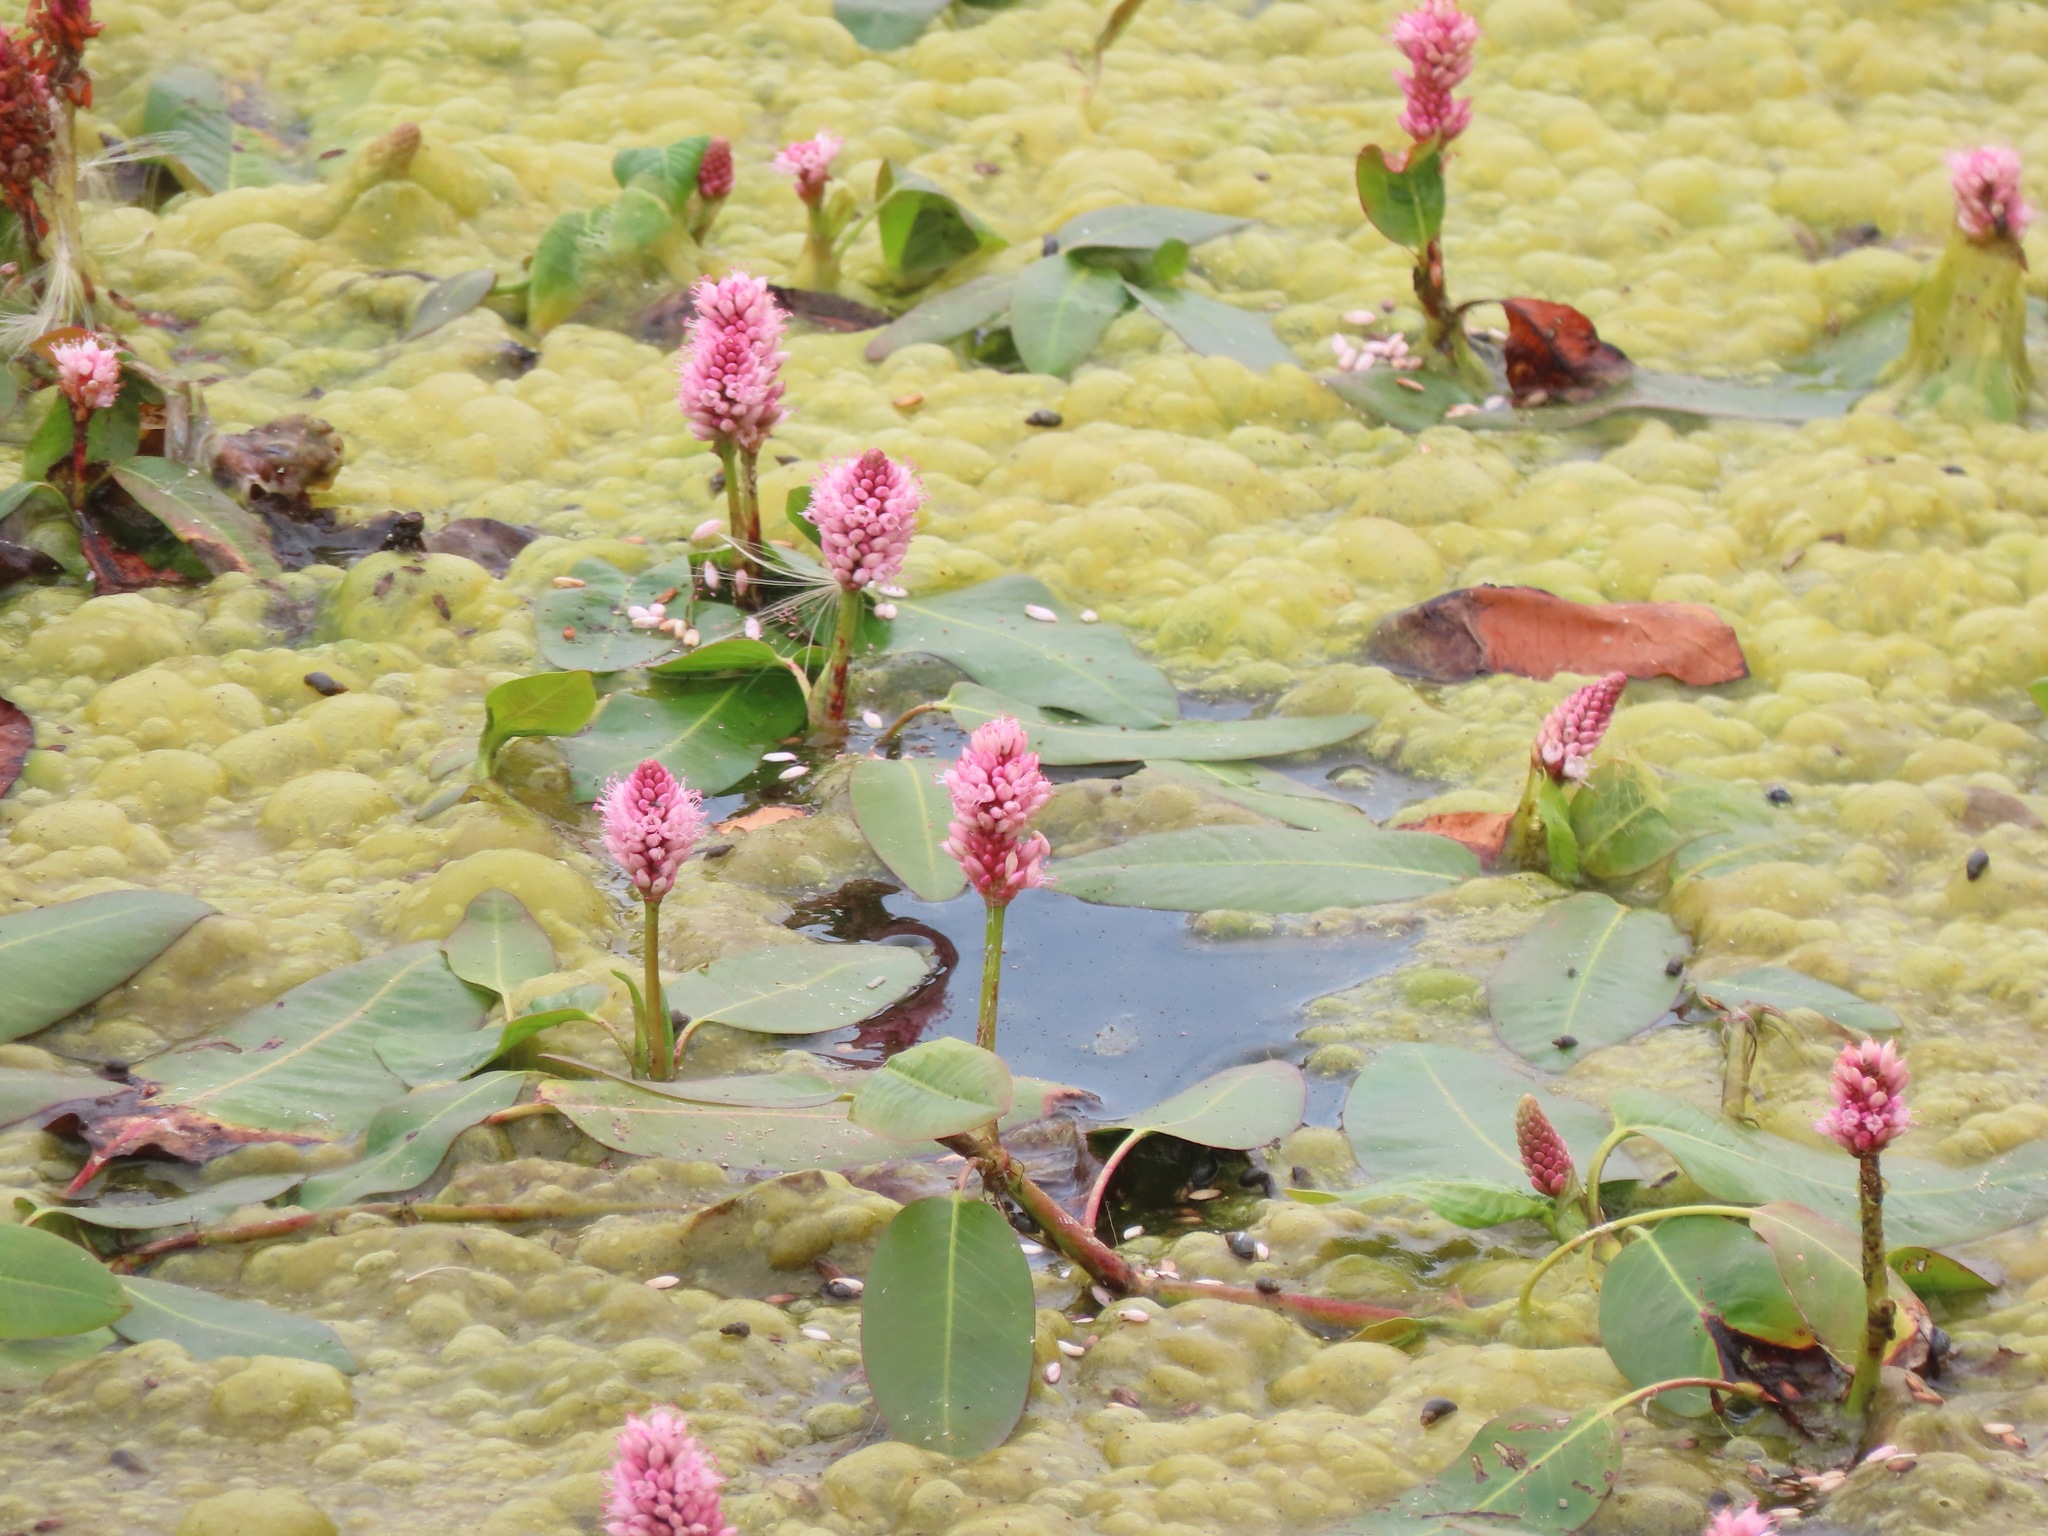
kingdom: Plantae
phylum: Tracheophyta
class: Magnoliopsida
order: Caryophyllales
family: Polygonaceae
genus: Persicaria
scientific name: Persicaria amphibia
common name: Amphibious bistort
